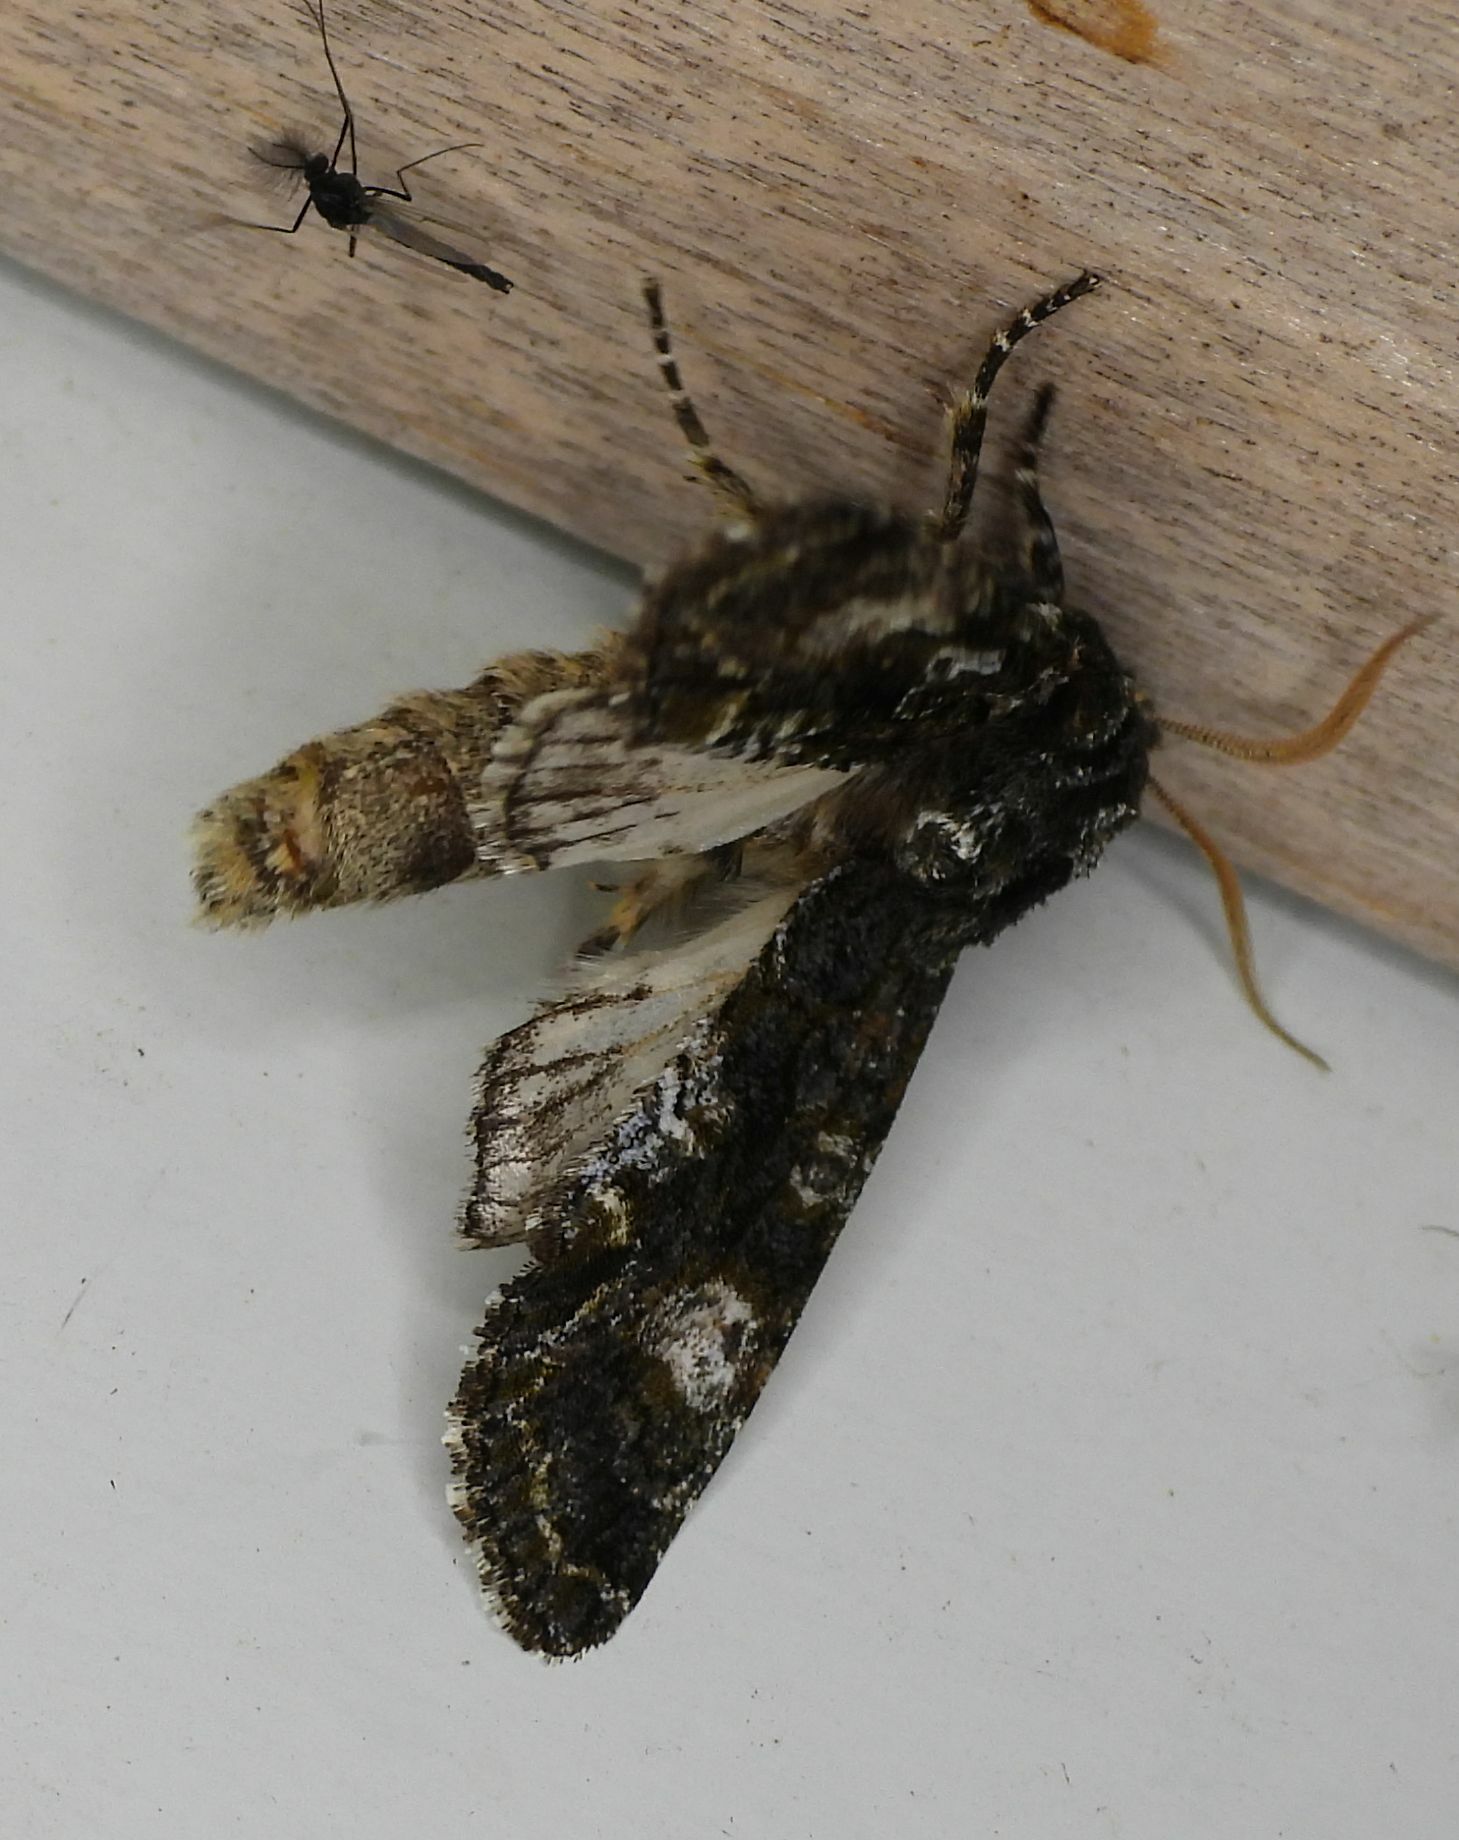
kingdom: Animalia
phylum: Arthropoda
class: Insecta
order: Lepidoptera
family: Noctuidae
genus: Psaphida
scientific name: Psaphida grotei
